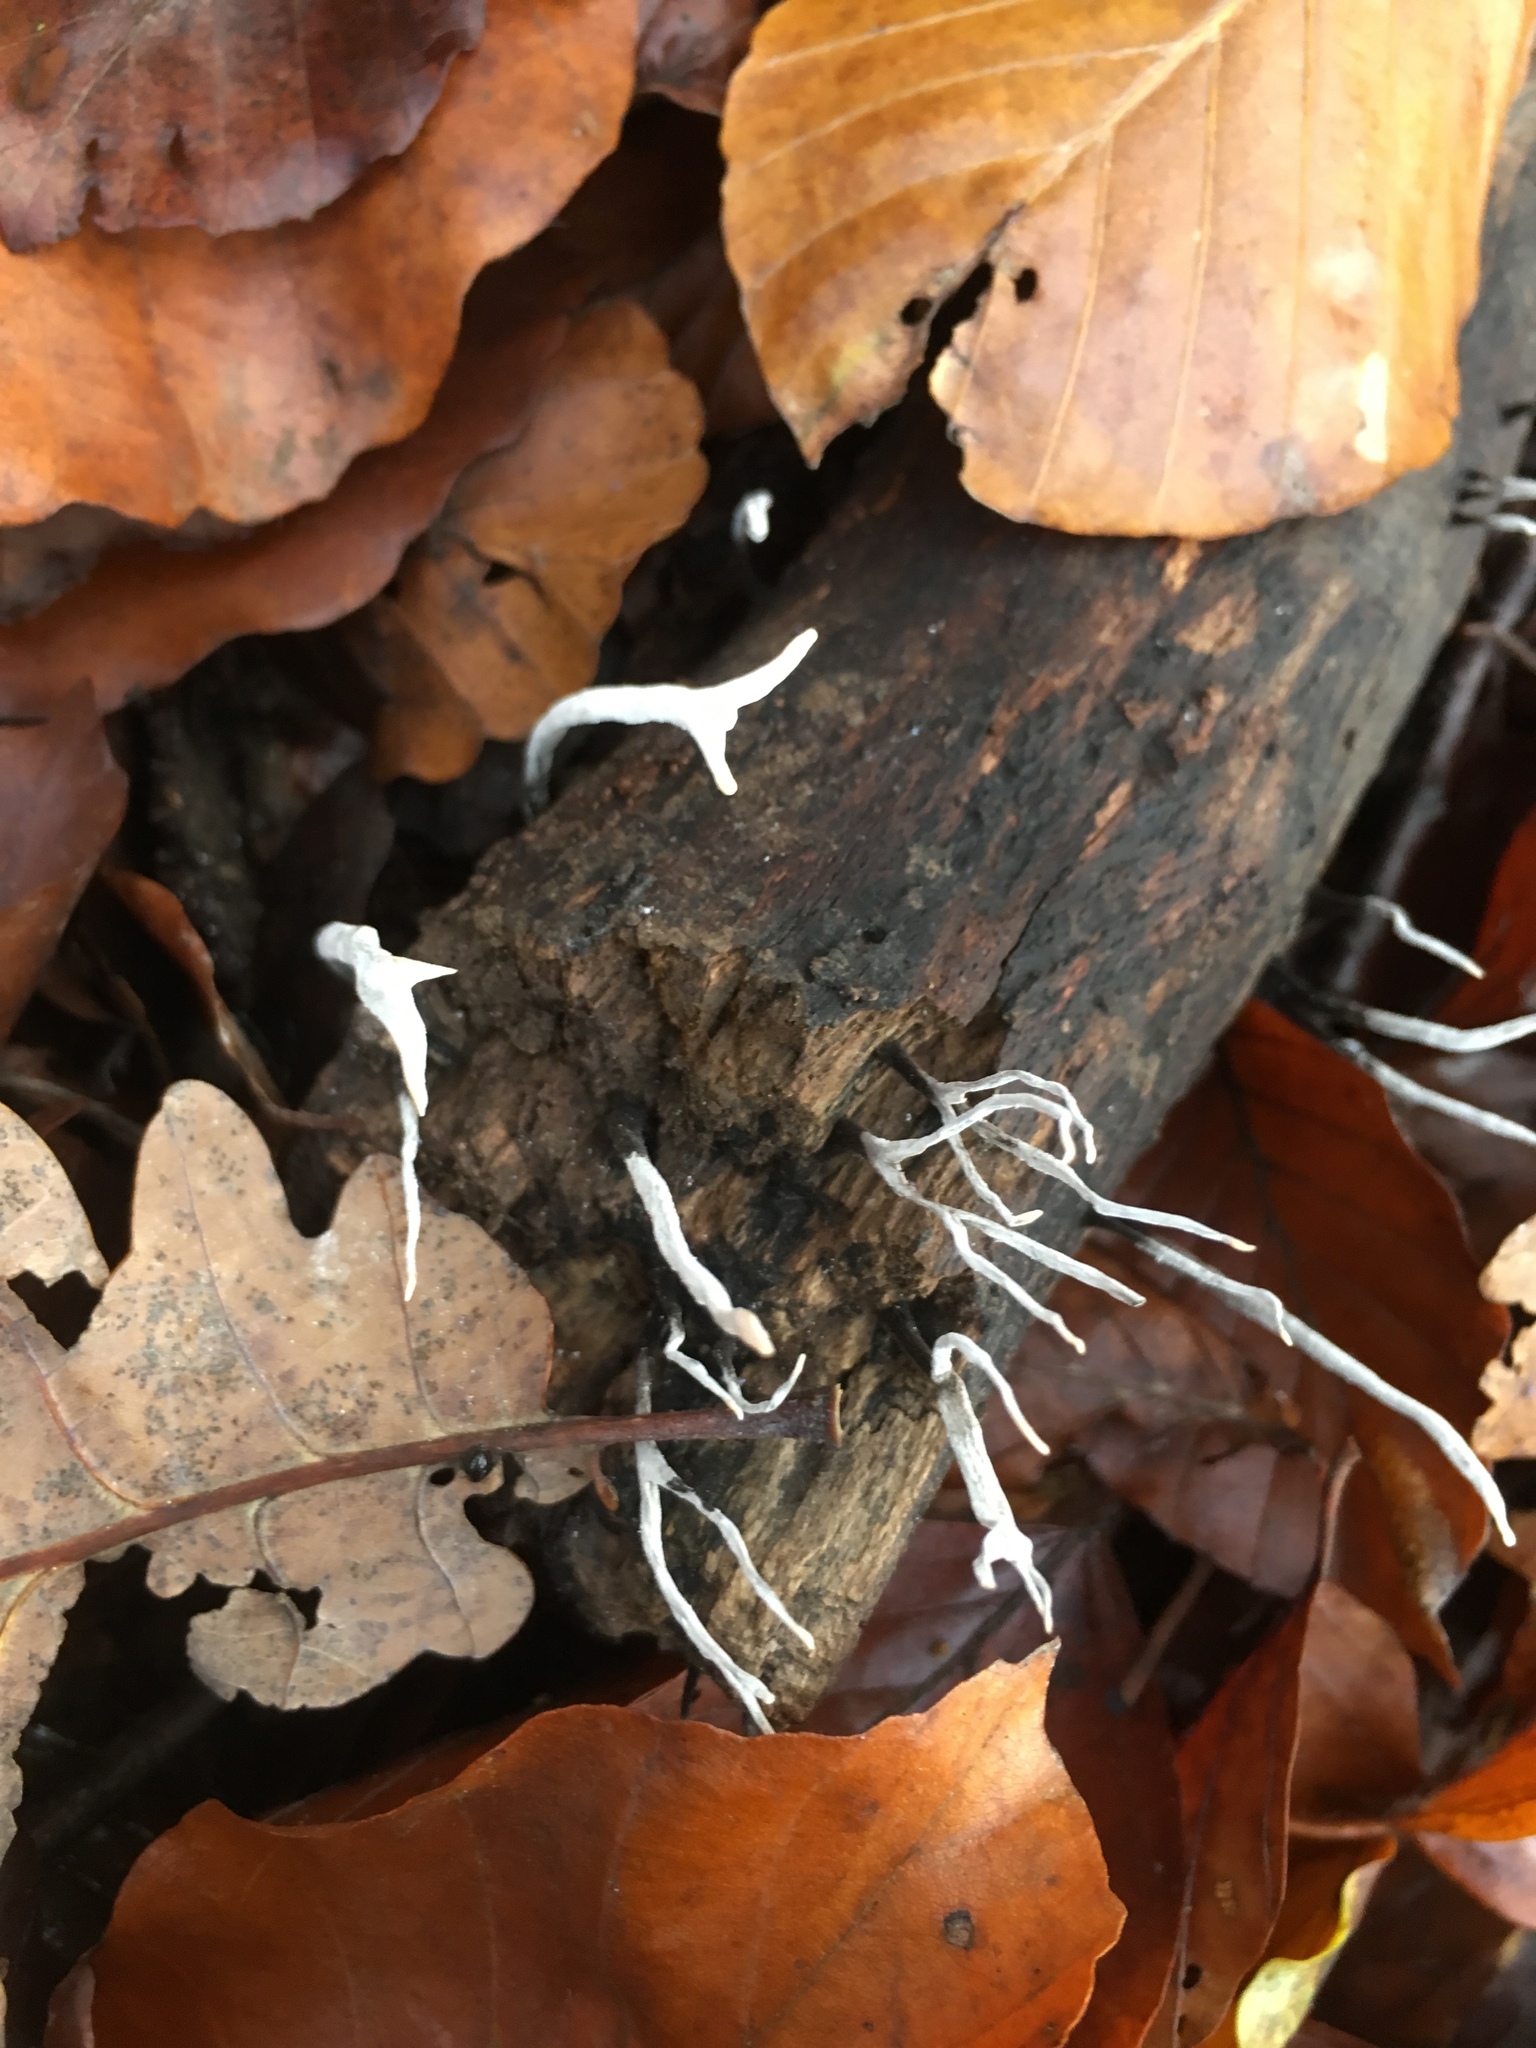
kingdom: Fungi
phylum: Ascomycota
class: Sordariomycetes
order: Xylariales
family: Xylariaceae
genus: Xylaria
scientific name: Xylaria hypoxylon
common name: Candle-snuff fungus
